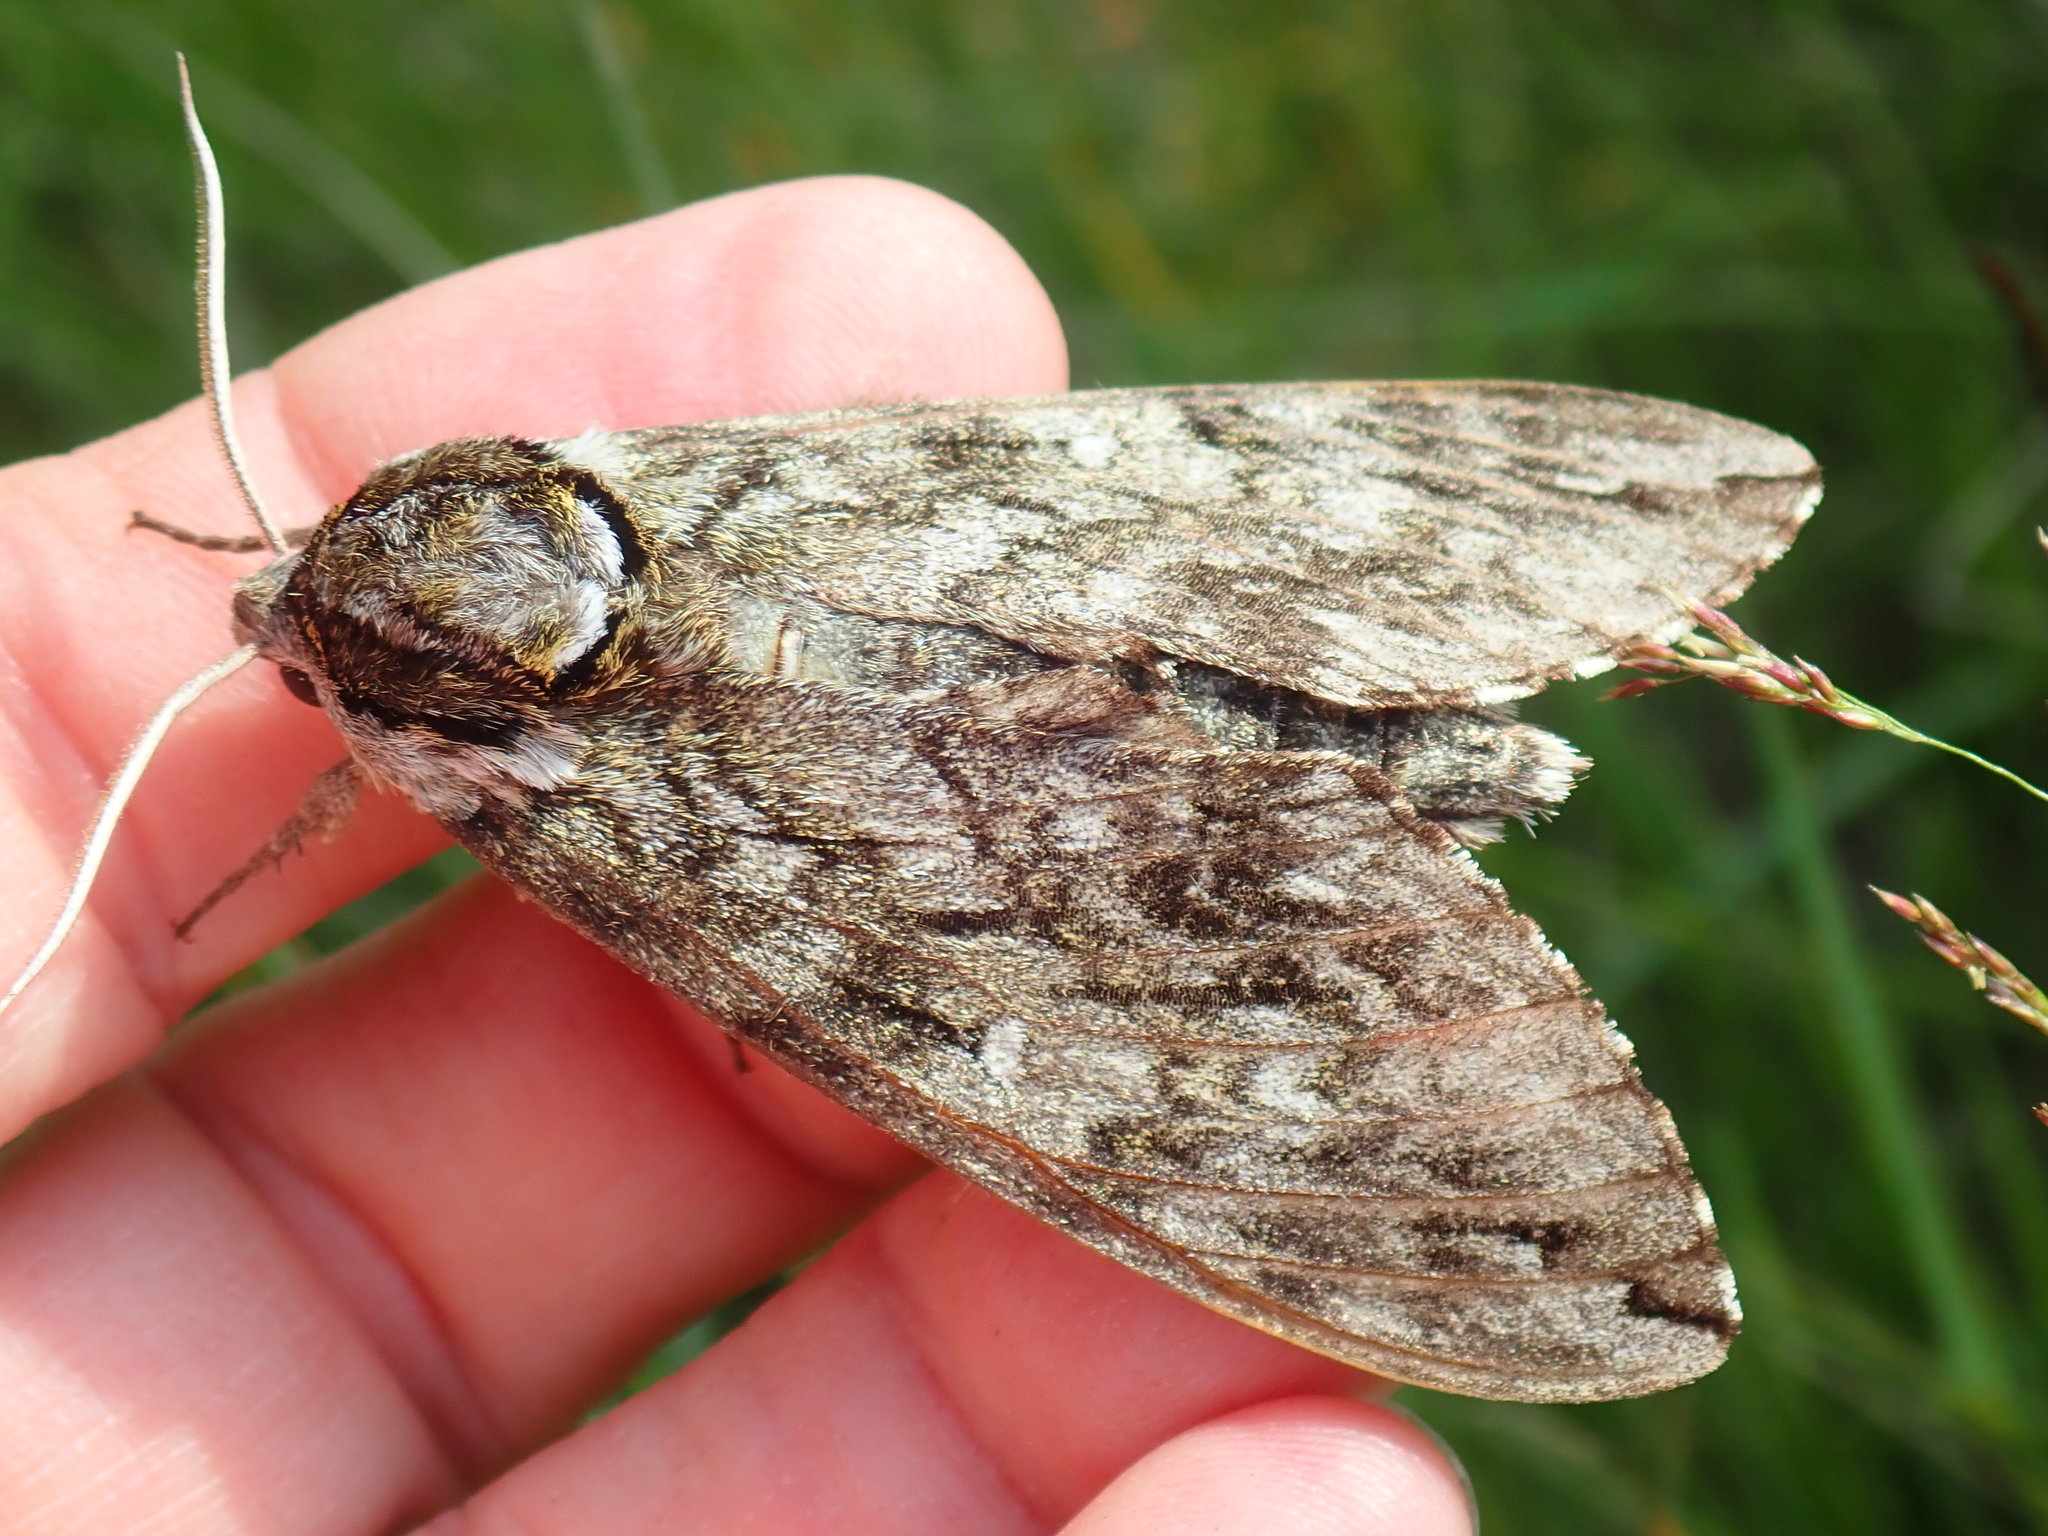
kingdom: Animalia
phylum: Arthropoda
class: Insecta
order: Lepidoptera
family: Sphingidae
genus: Ceratomia
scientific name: Ceratomia undulosa
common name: Waved sphinx
